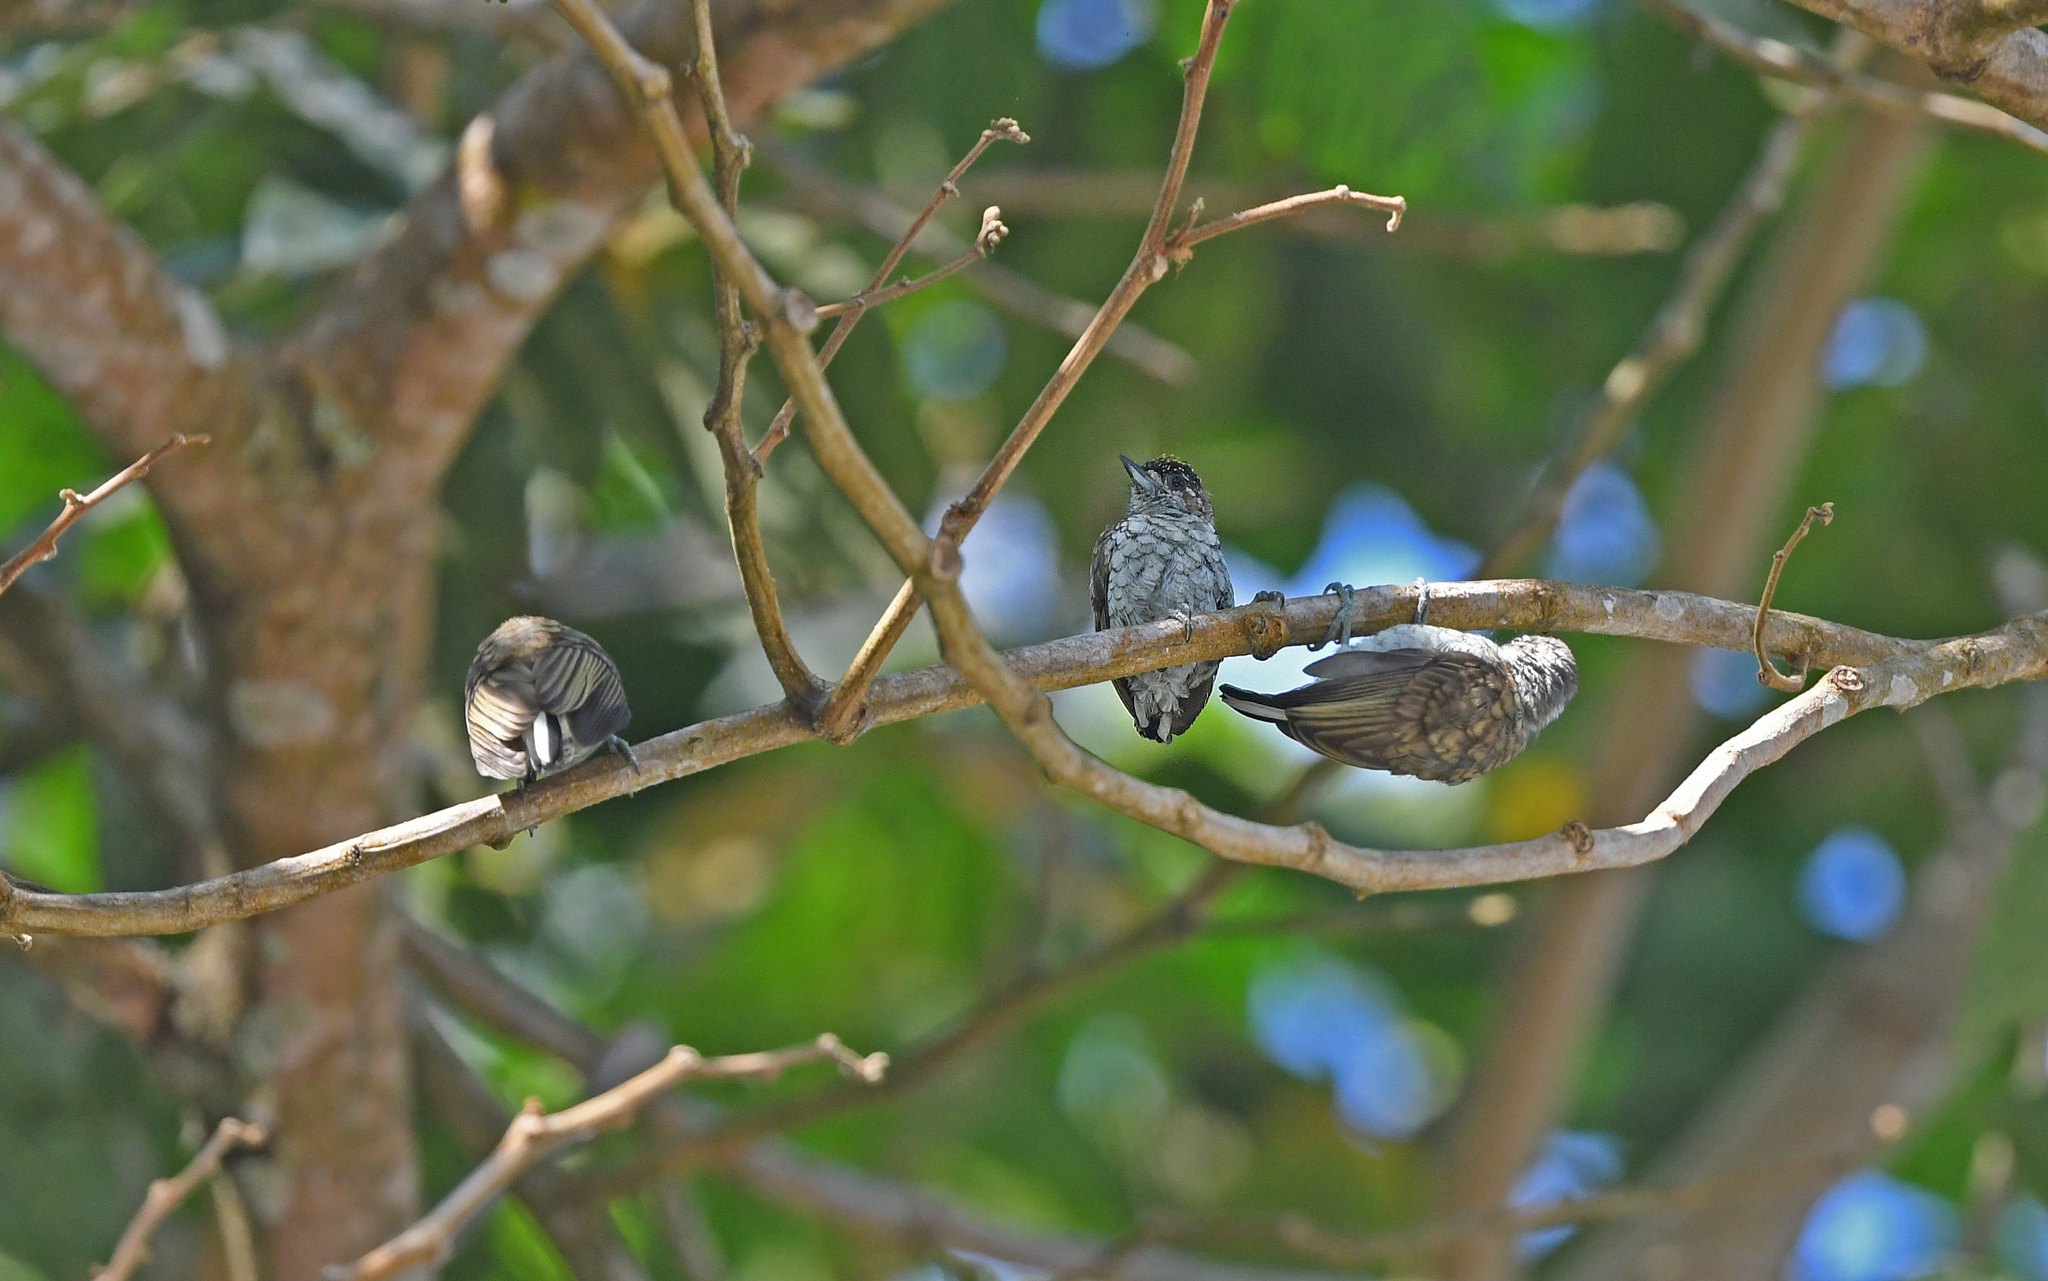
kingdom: Animalia
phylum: Chordata
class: Aves
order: Piciformes
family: Picidae
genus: Picumnus
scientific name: Picumnus squamulatus
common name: Scaled piculet
